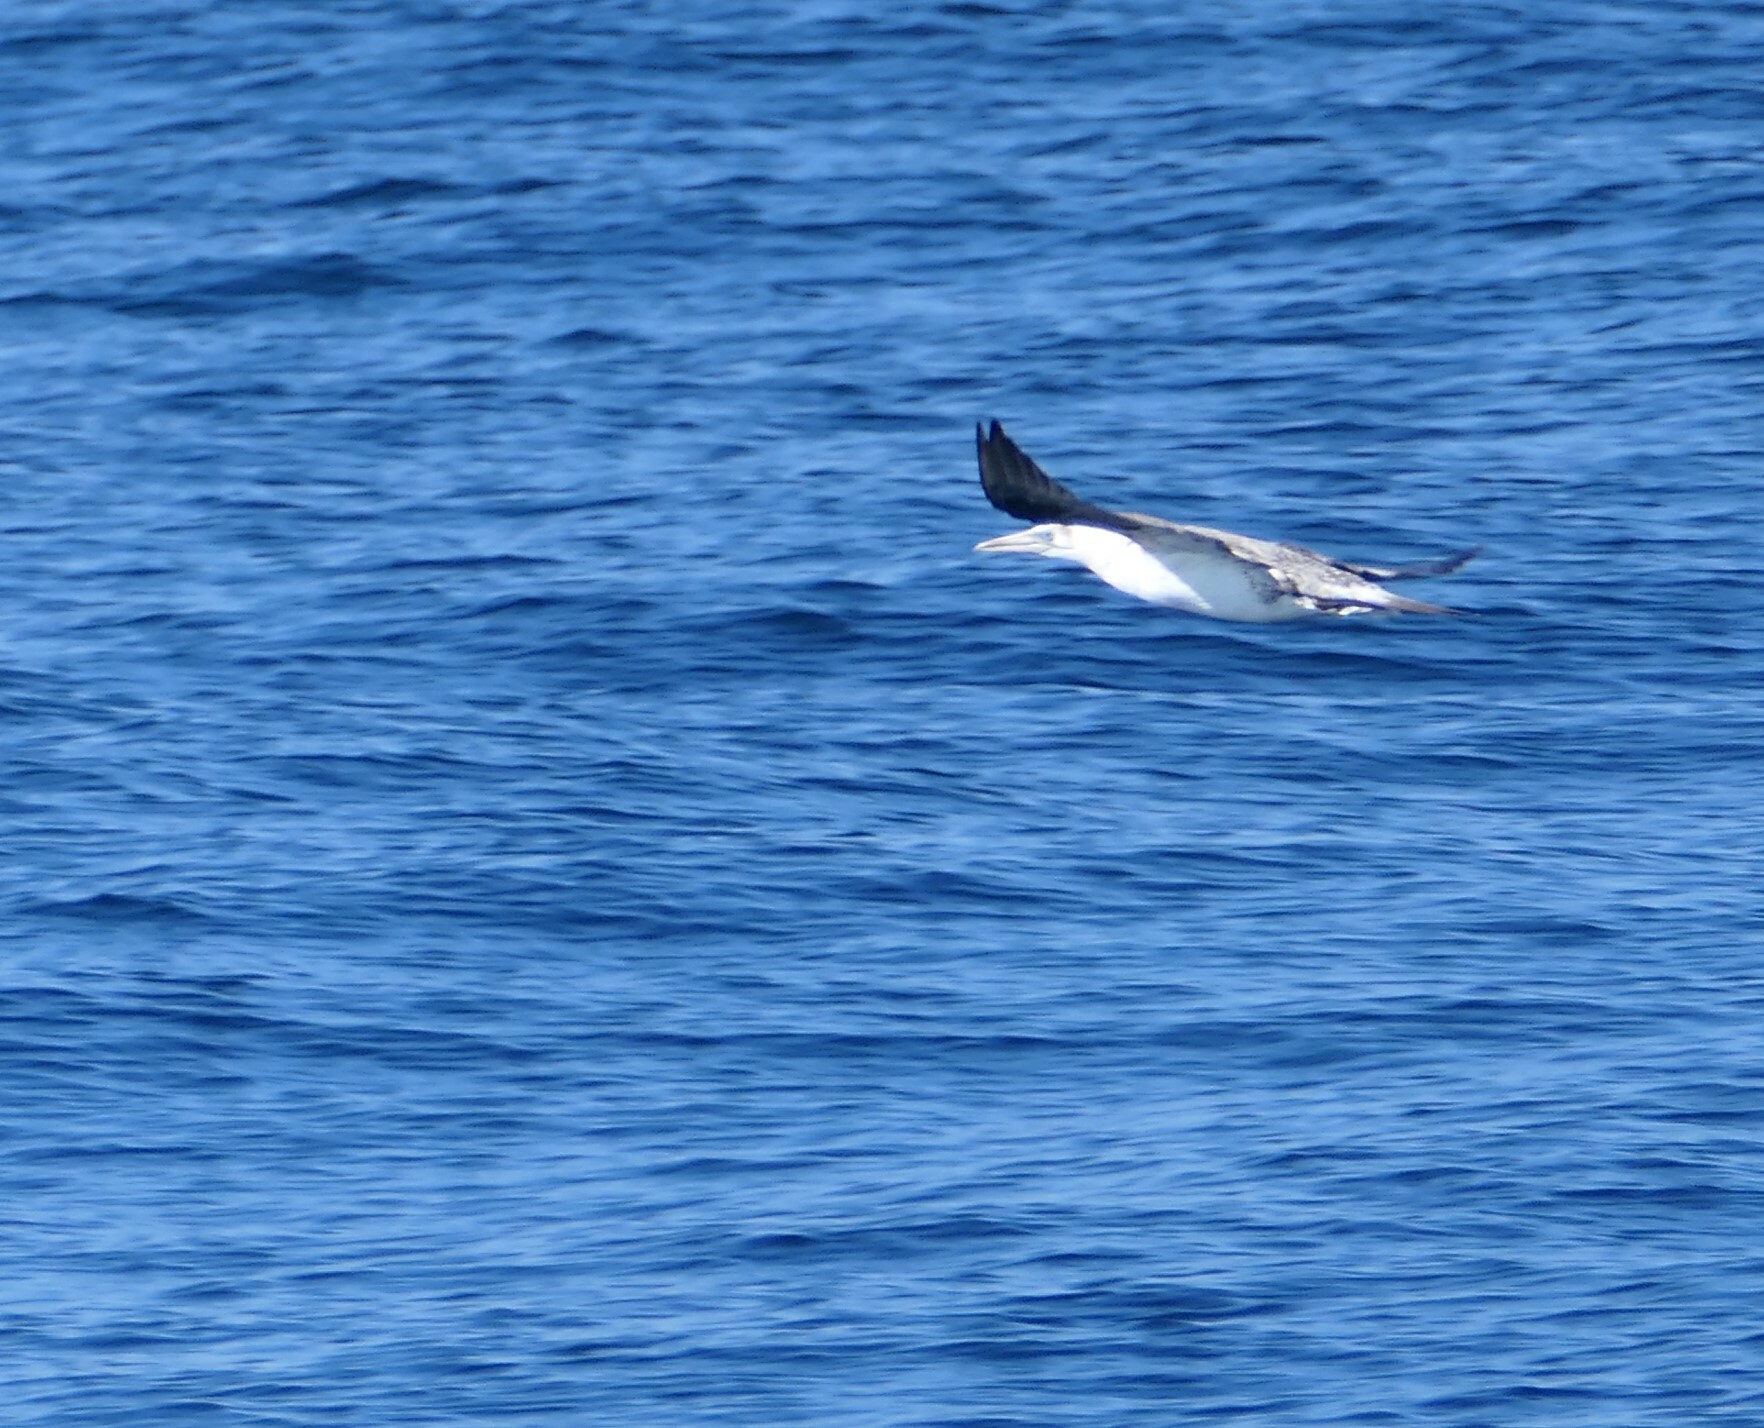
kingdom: Animalia
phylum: Chordata
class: Aves
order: Suliformes
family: Sulidae
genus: Morus
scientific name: Morus bassanus
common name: Northern gannet
